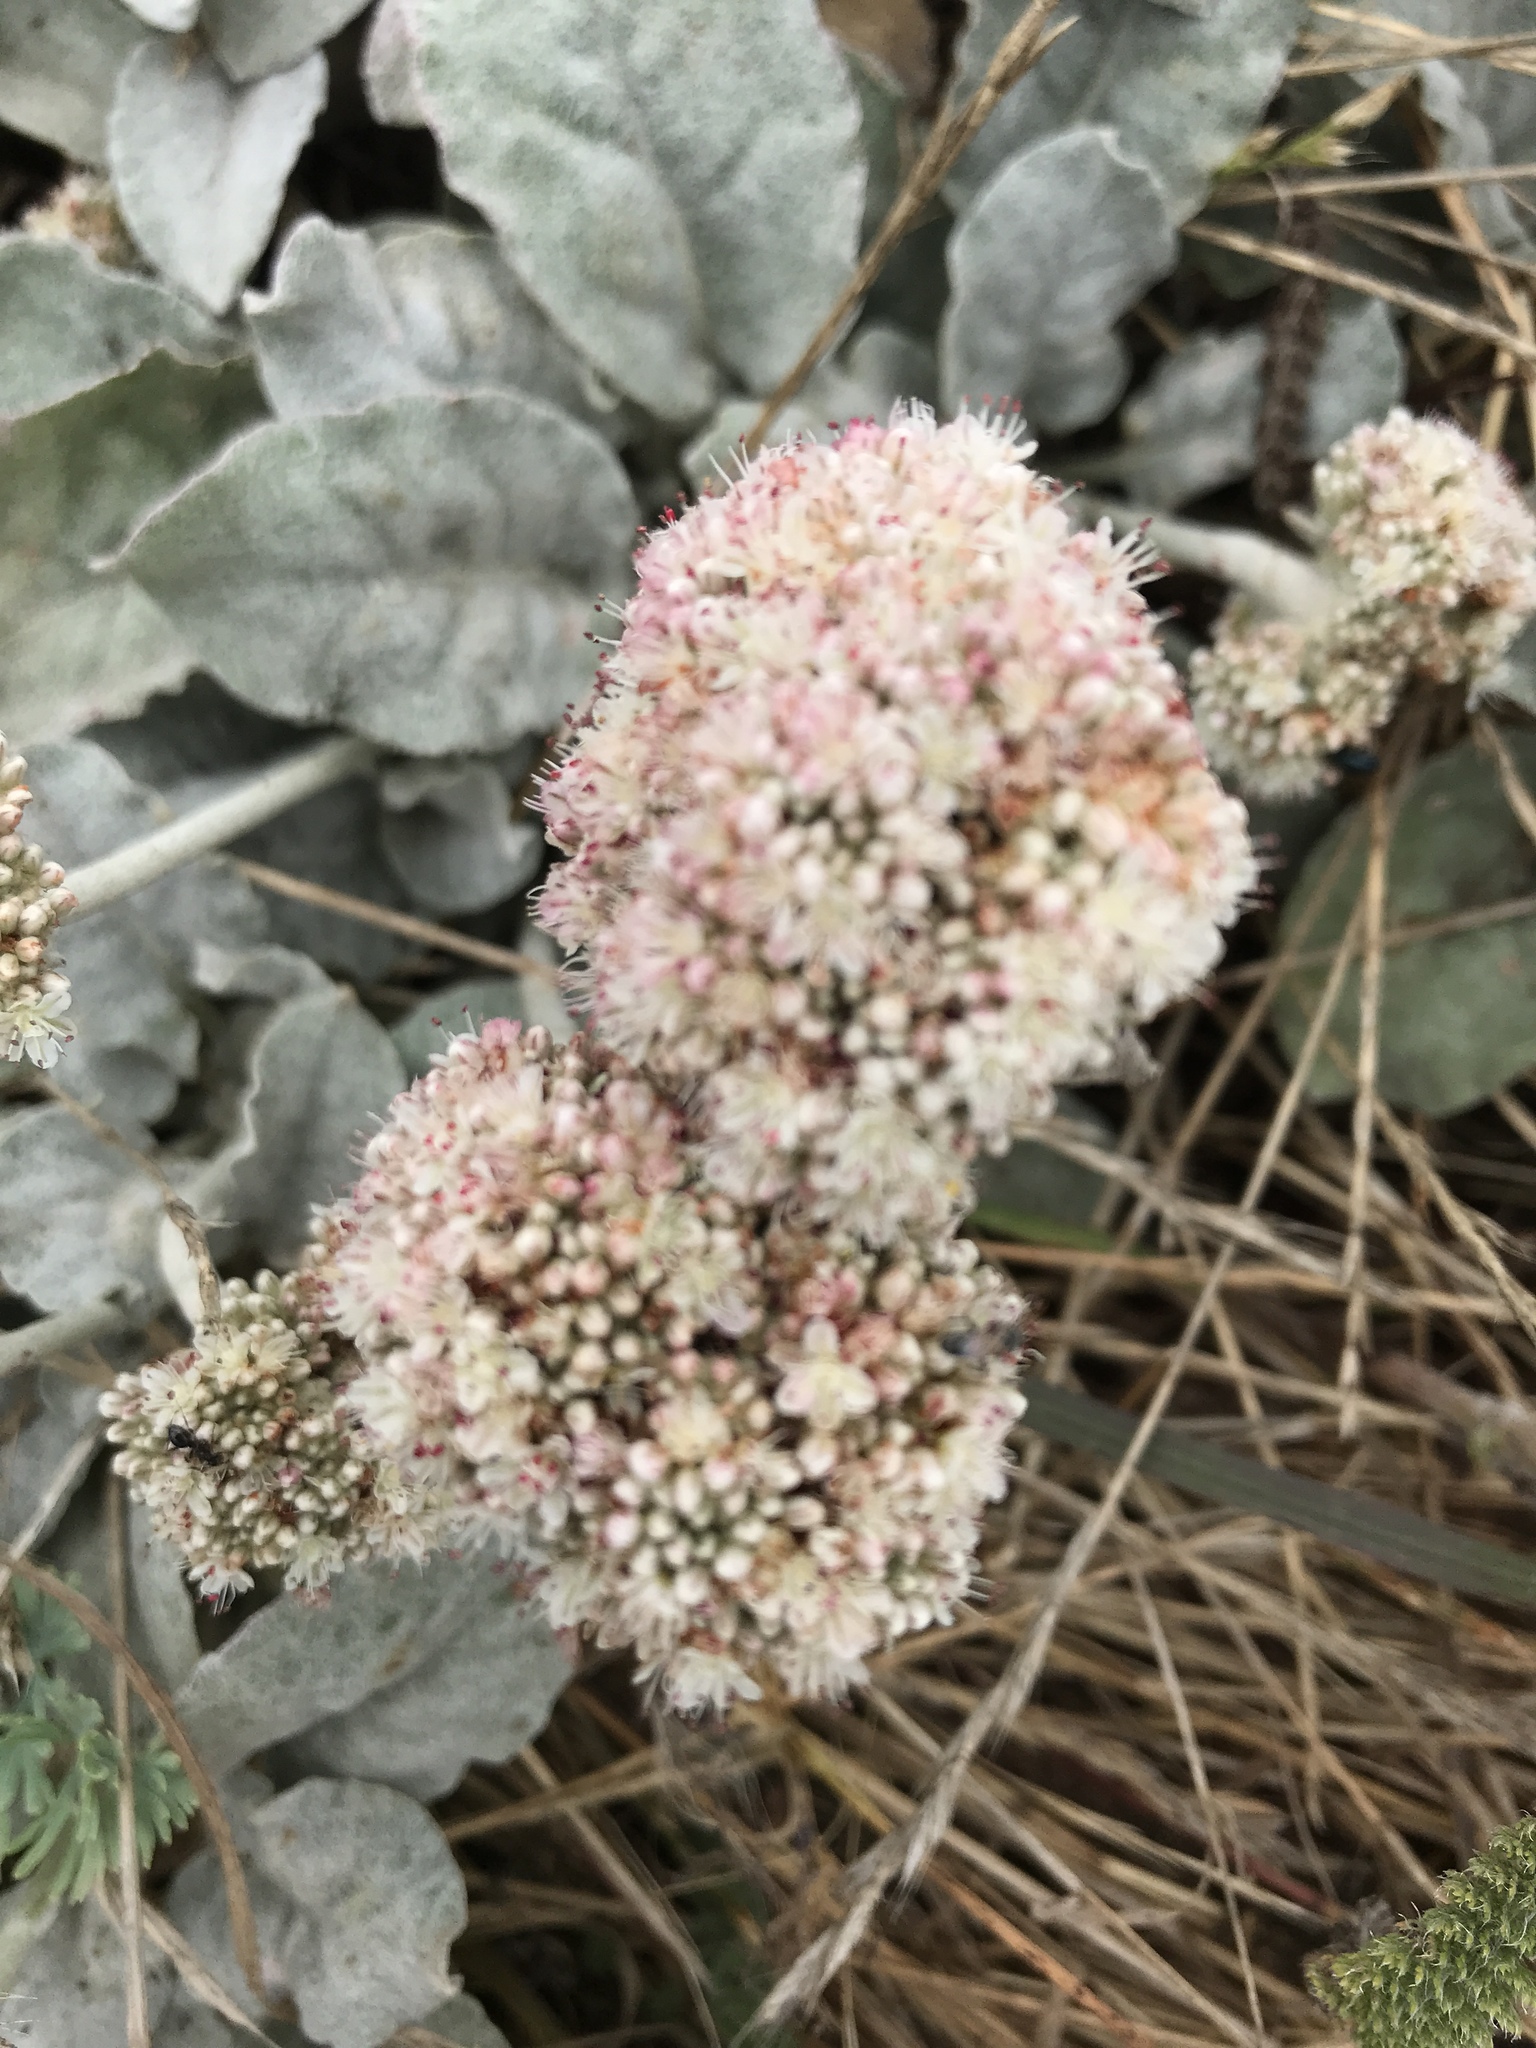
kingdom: Plantae
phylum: Tracheophyta
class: Magnoliopsida
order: Caryophyllales
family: Polygonaceae
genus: Eriogonum
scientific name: Eriogonum latifolium
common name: Seaside wild buckwheat
